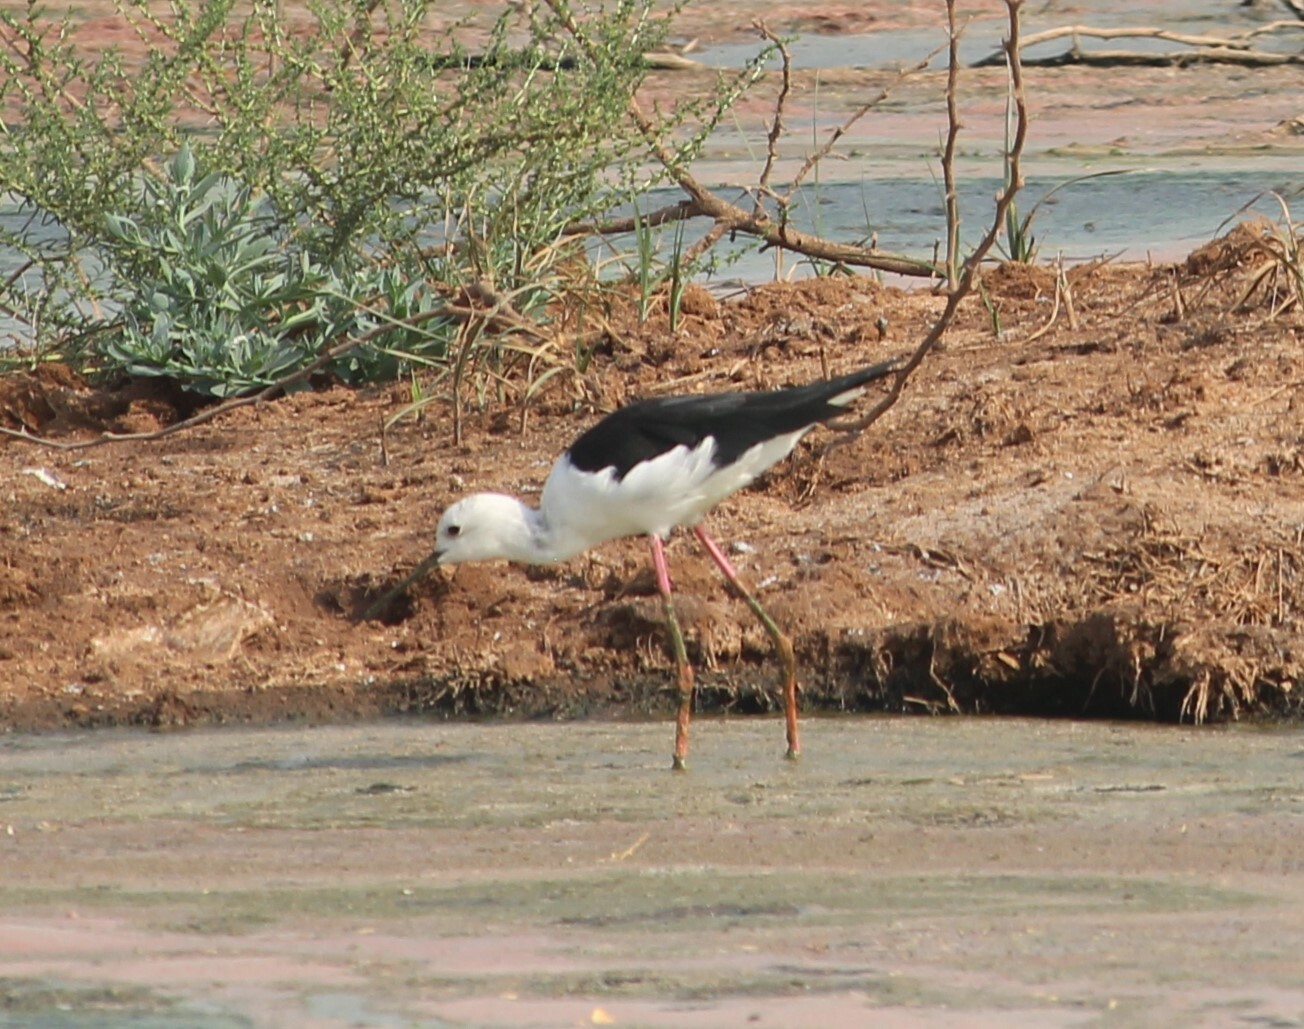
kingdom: Animalia
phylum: Chordata
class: Aves
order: Charadriiformes
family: Recurvirostridae
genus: Himantopus
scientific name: Himantopus himantopus
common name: Black-winged stilt
